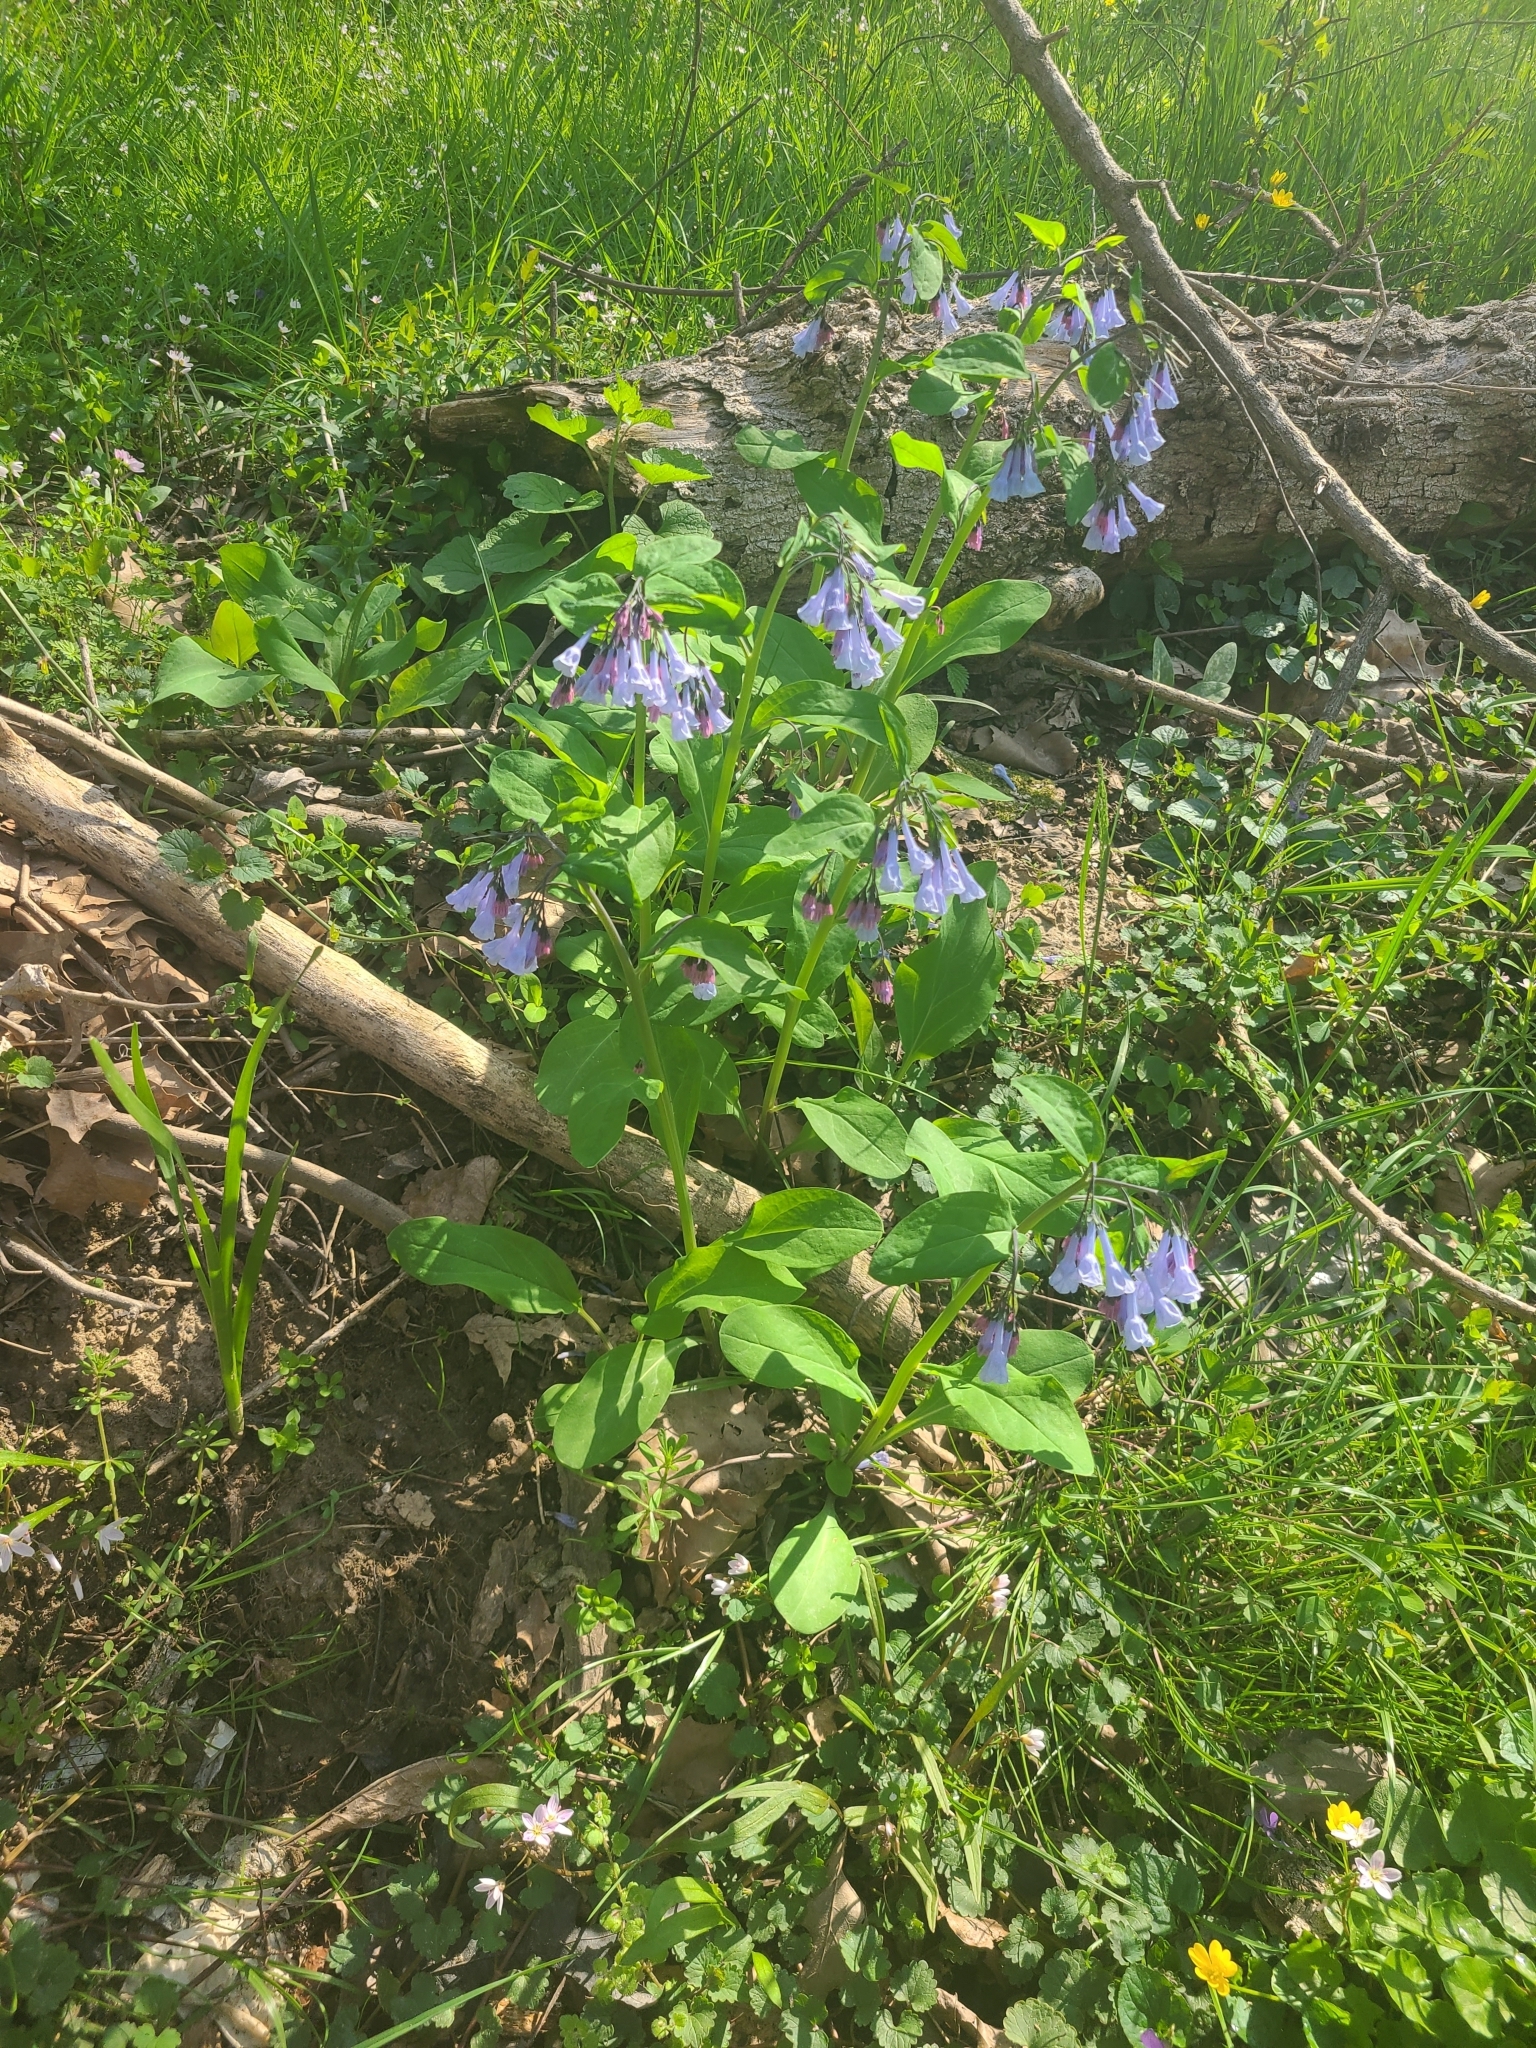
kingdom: Plantae
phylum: Tracheophyta
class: Magnoliopsida
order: Boraginales
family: Boraginaceae
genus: Mertensia
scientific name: Mertensia virginica
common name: Virginia bluebells
